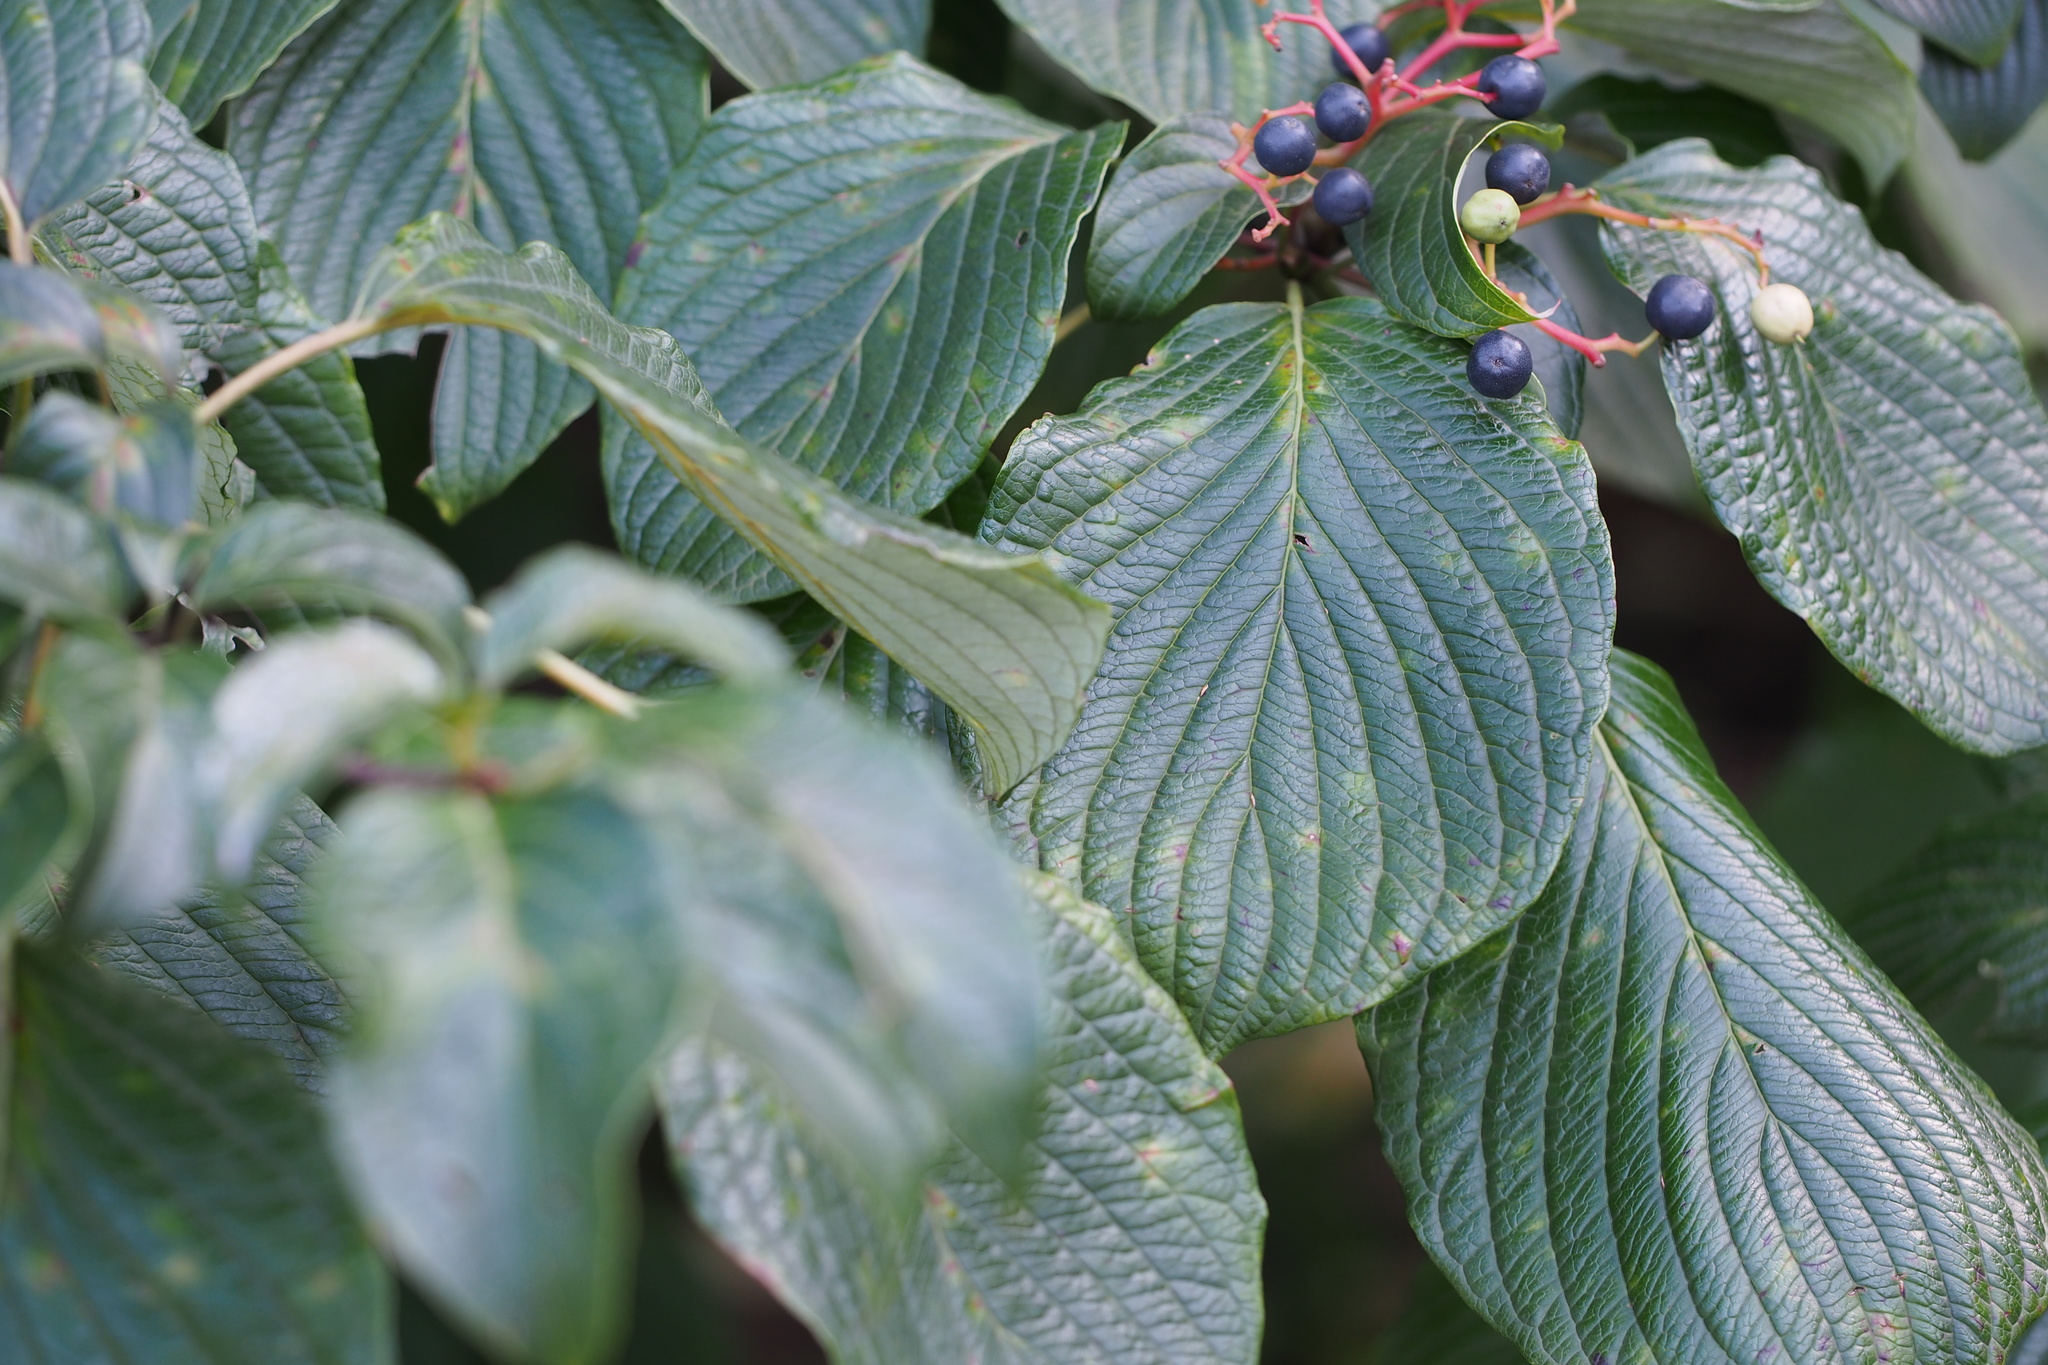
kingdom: Plantae
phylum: Tracheophyta
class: Magnoliopsida
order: Cornales
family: Cornaceae
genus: Cornus
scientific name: Cornus controversa
